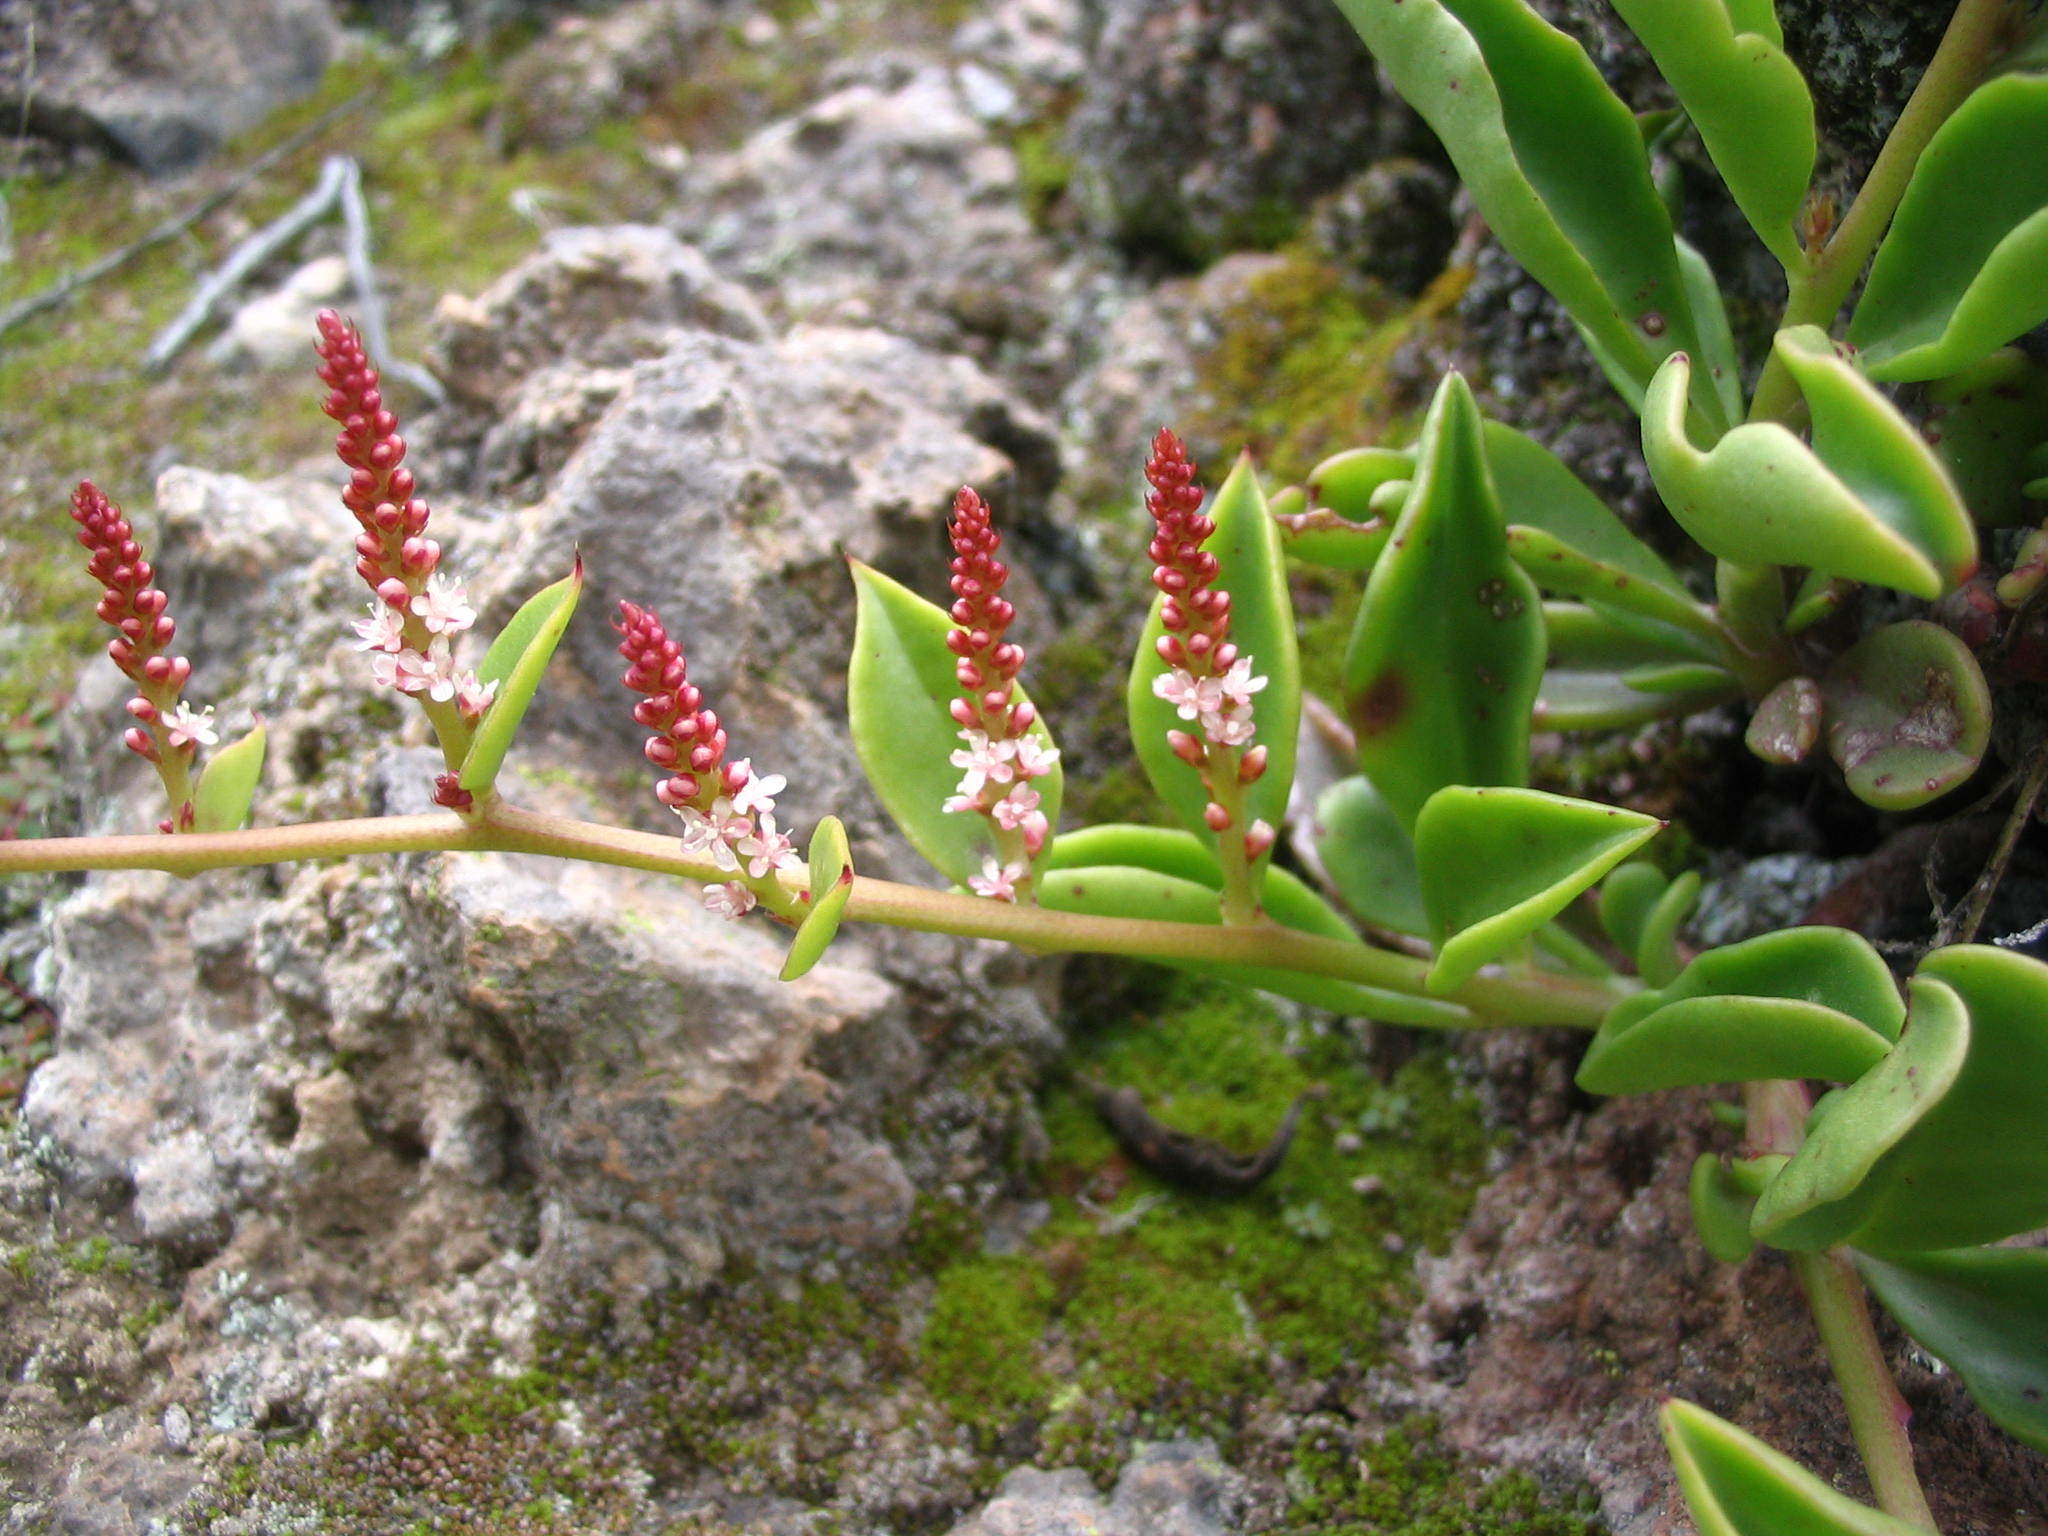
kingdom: Plantae
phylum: Tracheophyta
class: Magnoliopsida
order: Caryophyllales
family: Basellaceae
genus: Anredera
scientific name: Anredera diffusa
